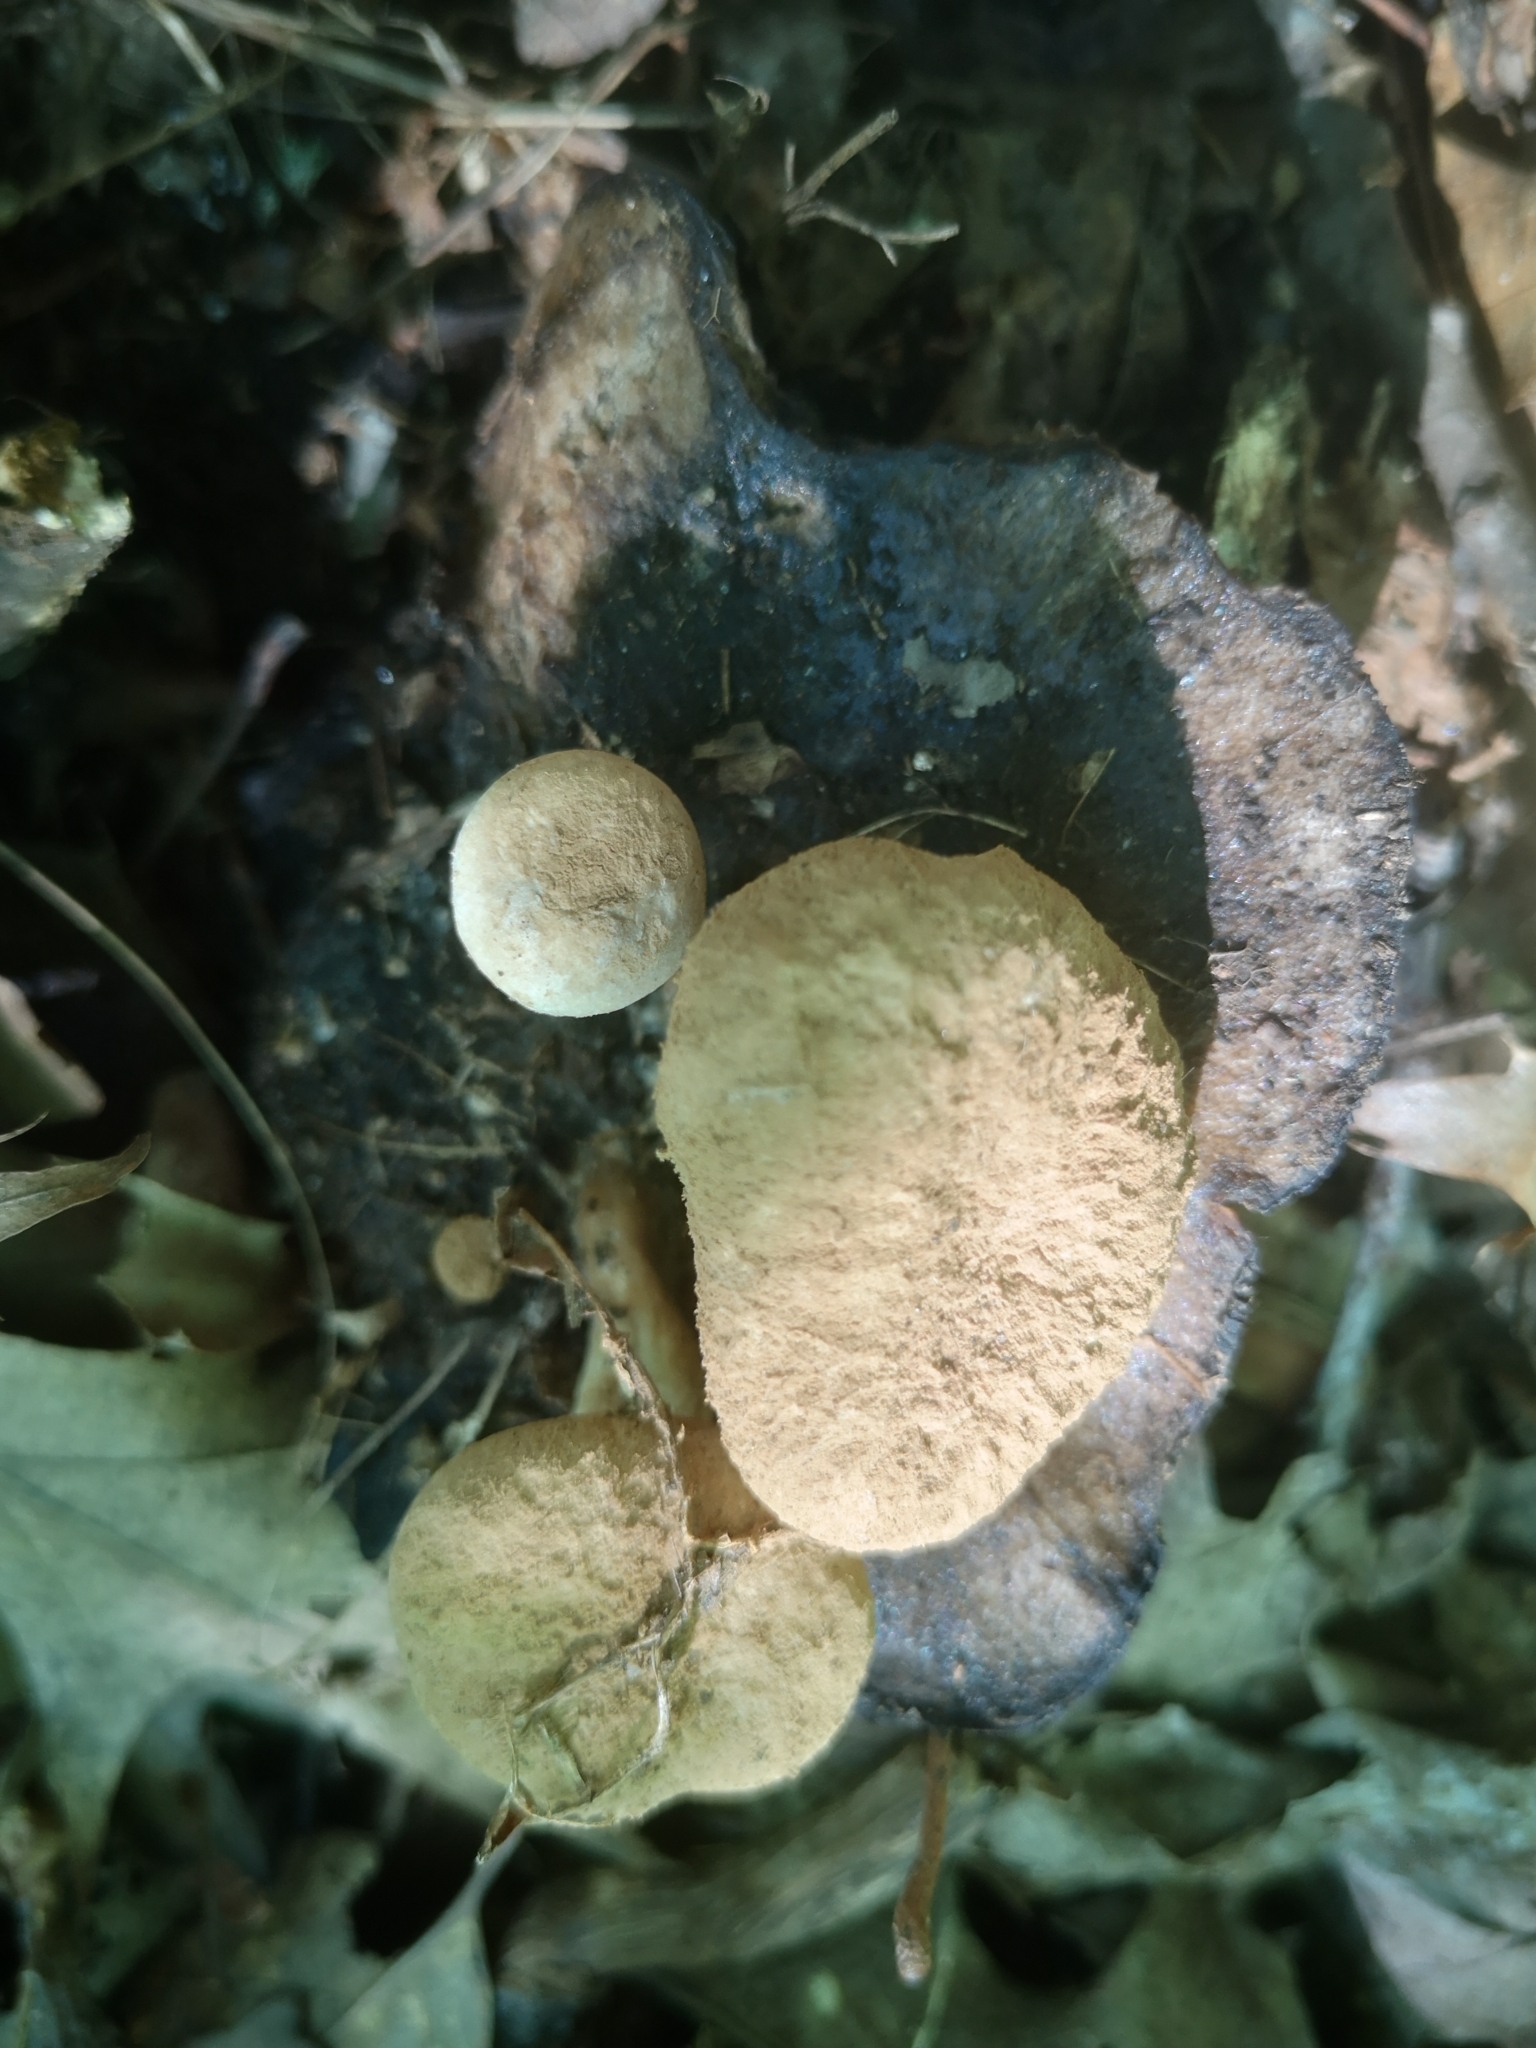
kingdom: Fungi
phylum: Basidiomycota
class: Agaricomycetes
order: Agaricales
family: Lyophyllaceae
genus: Asterophora
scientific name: Asterophora lycoperdoides
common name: Pick-a-back toadstool
